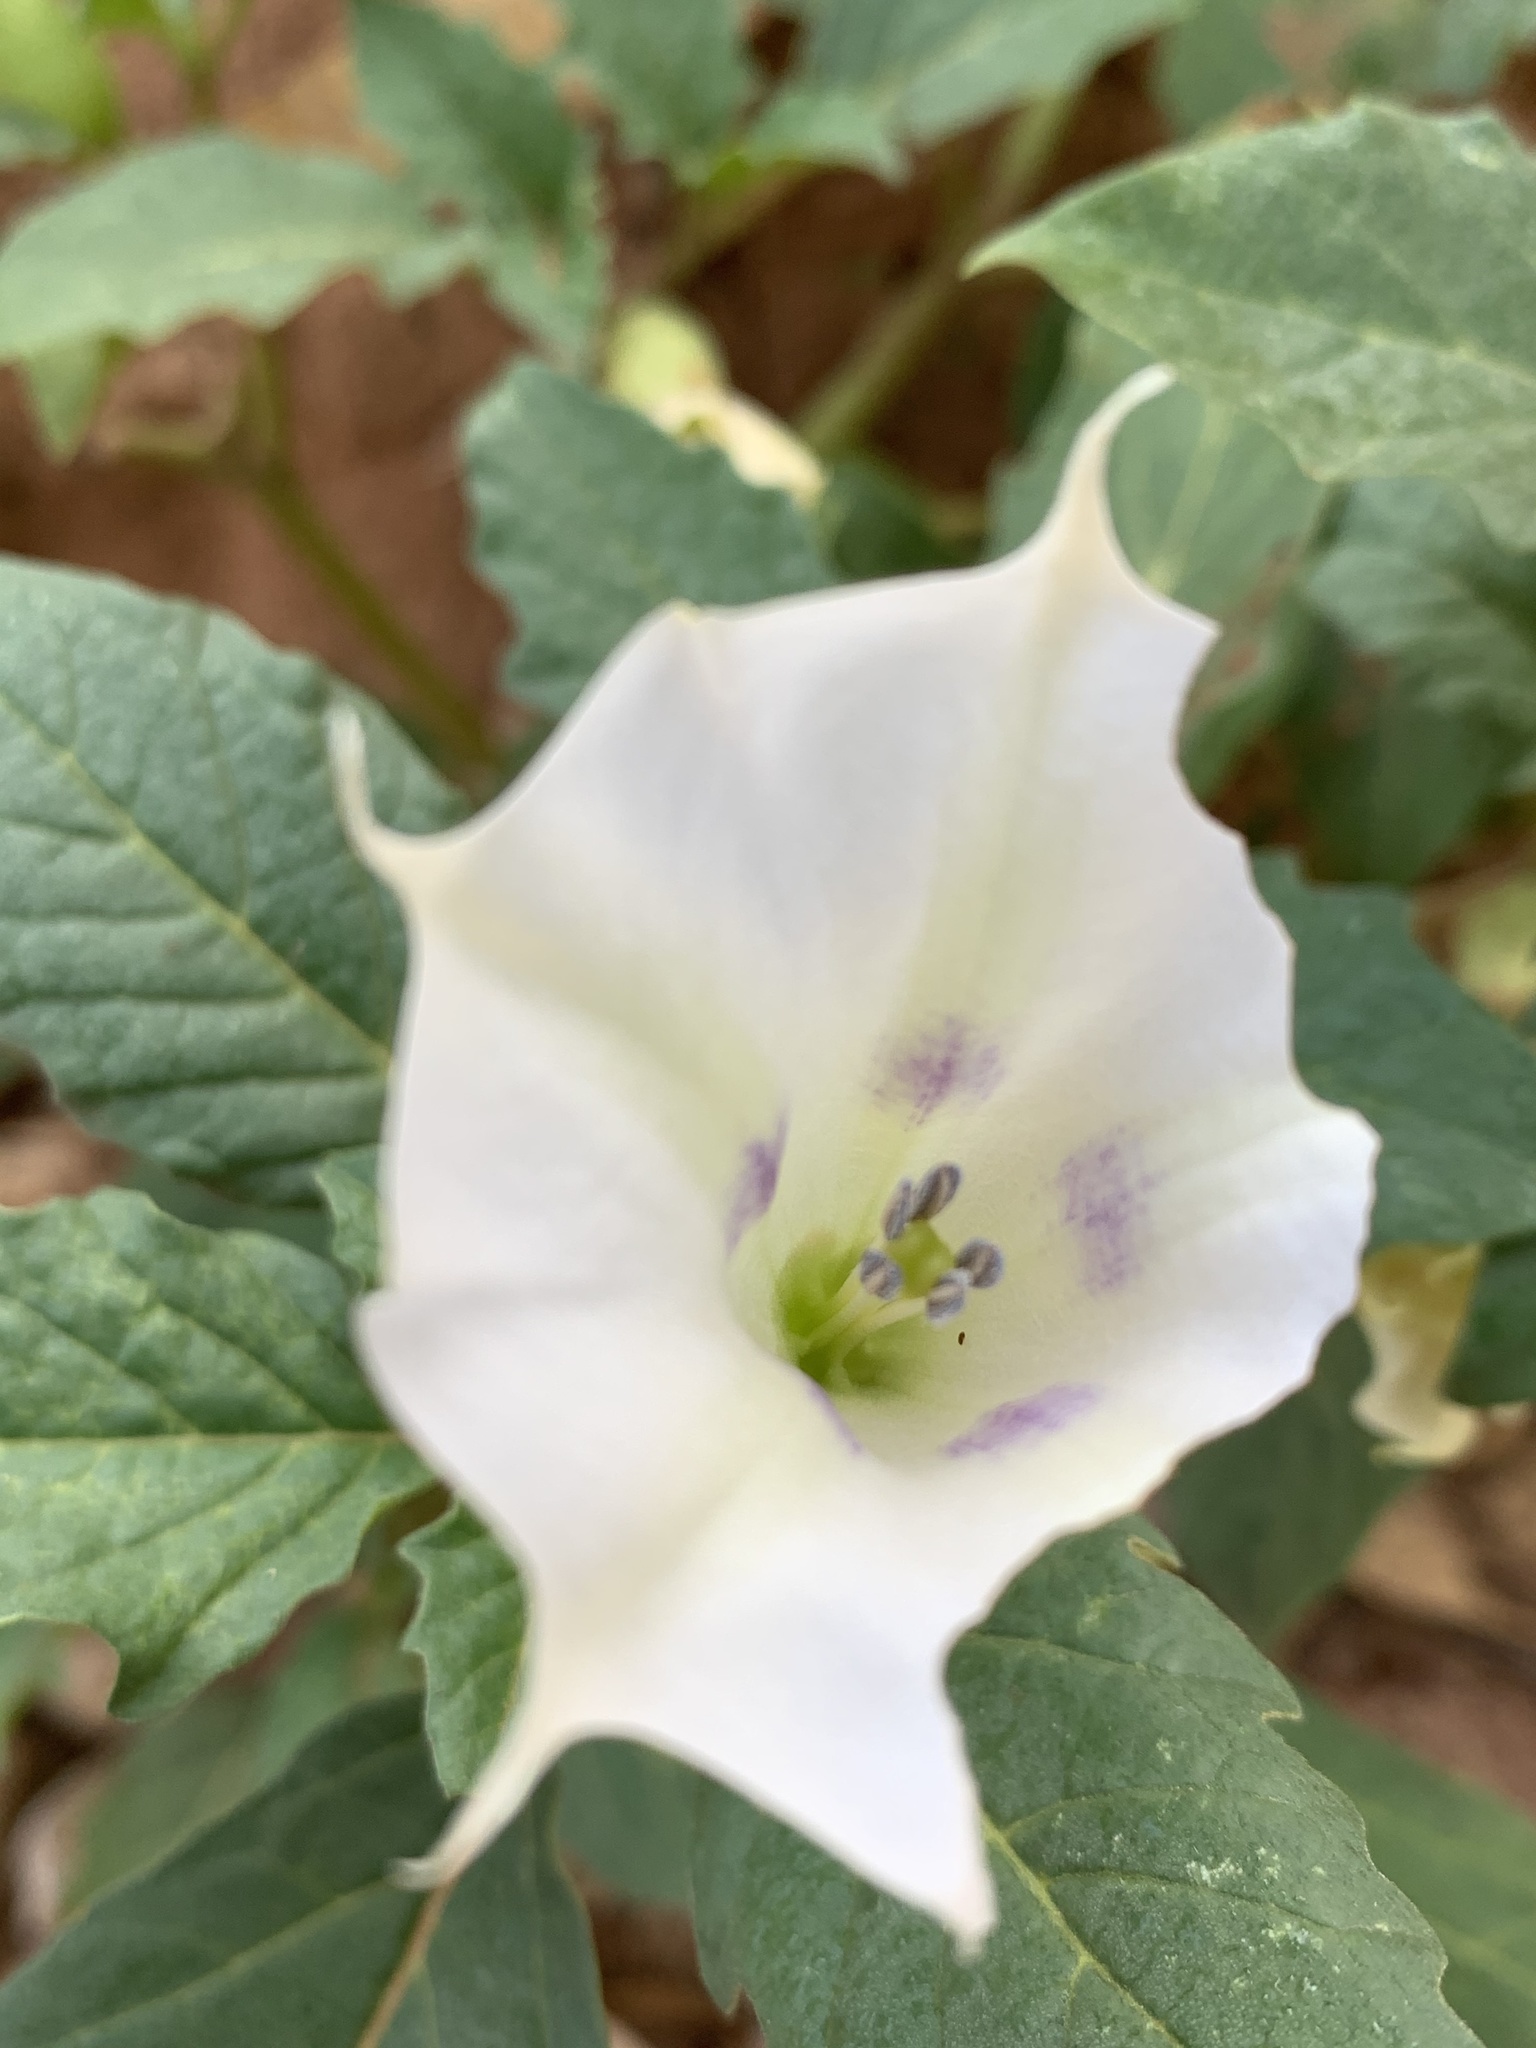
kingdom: Plantae
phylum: Tracheophyta
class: Magnoliopsida
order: Solanales
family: Solanaceae
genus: Datura
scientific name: Datura leichhardtii
